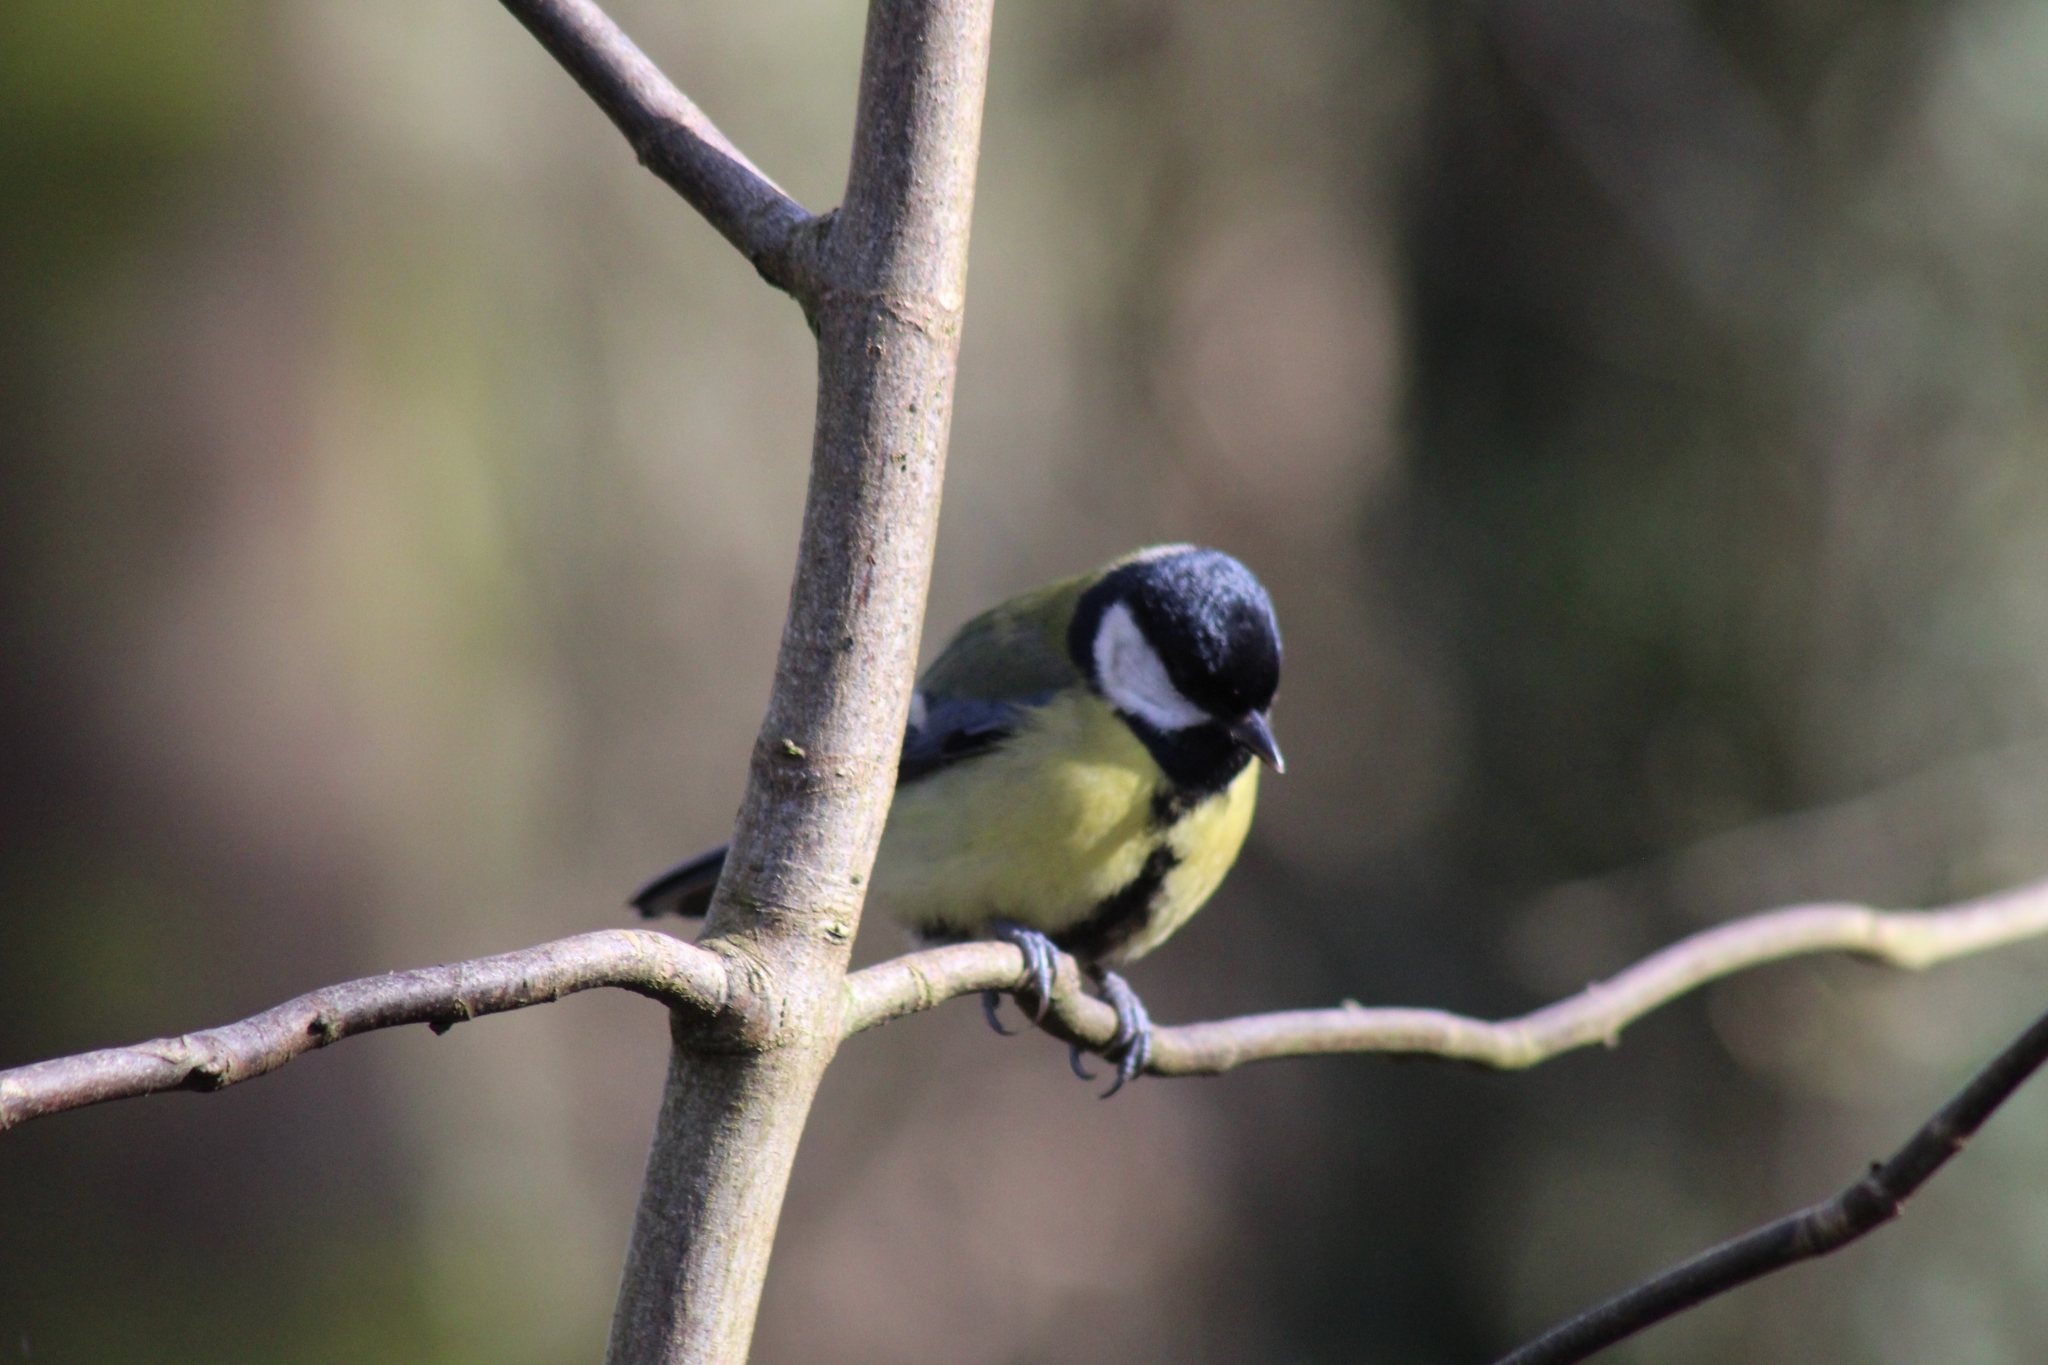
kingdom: Animalia
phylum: Chordata
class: Aves
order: Passeriformes
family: Paridae
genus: Parus
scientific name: Parus major
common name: Great tit
